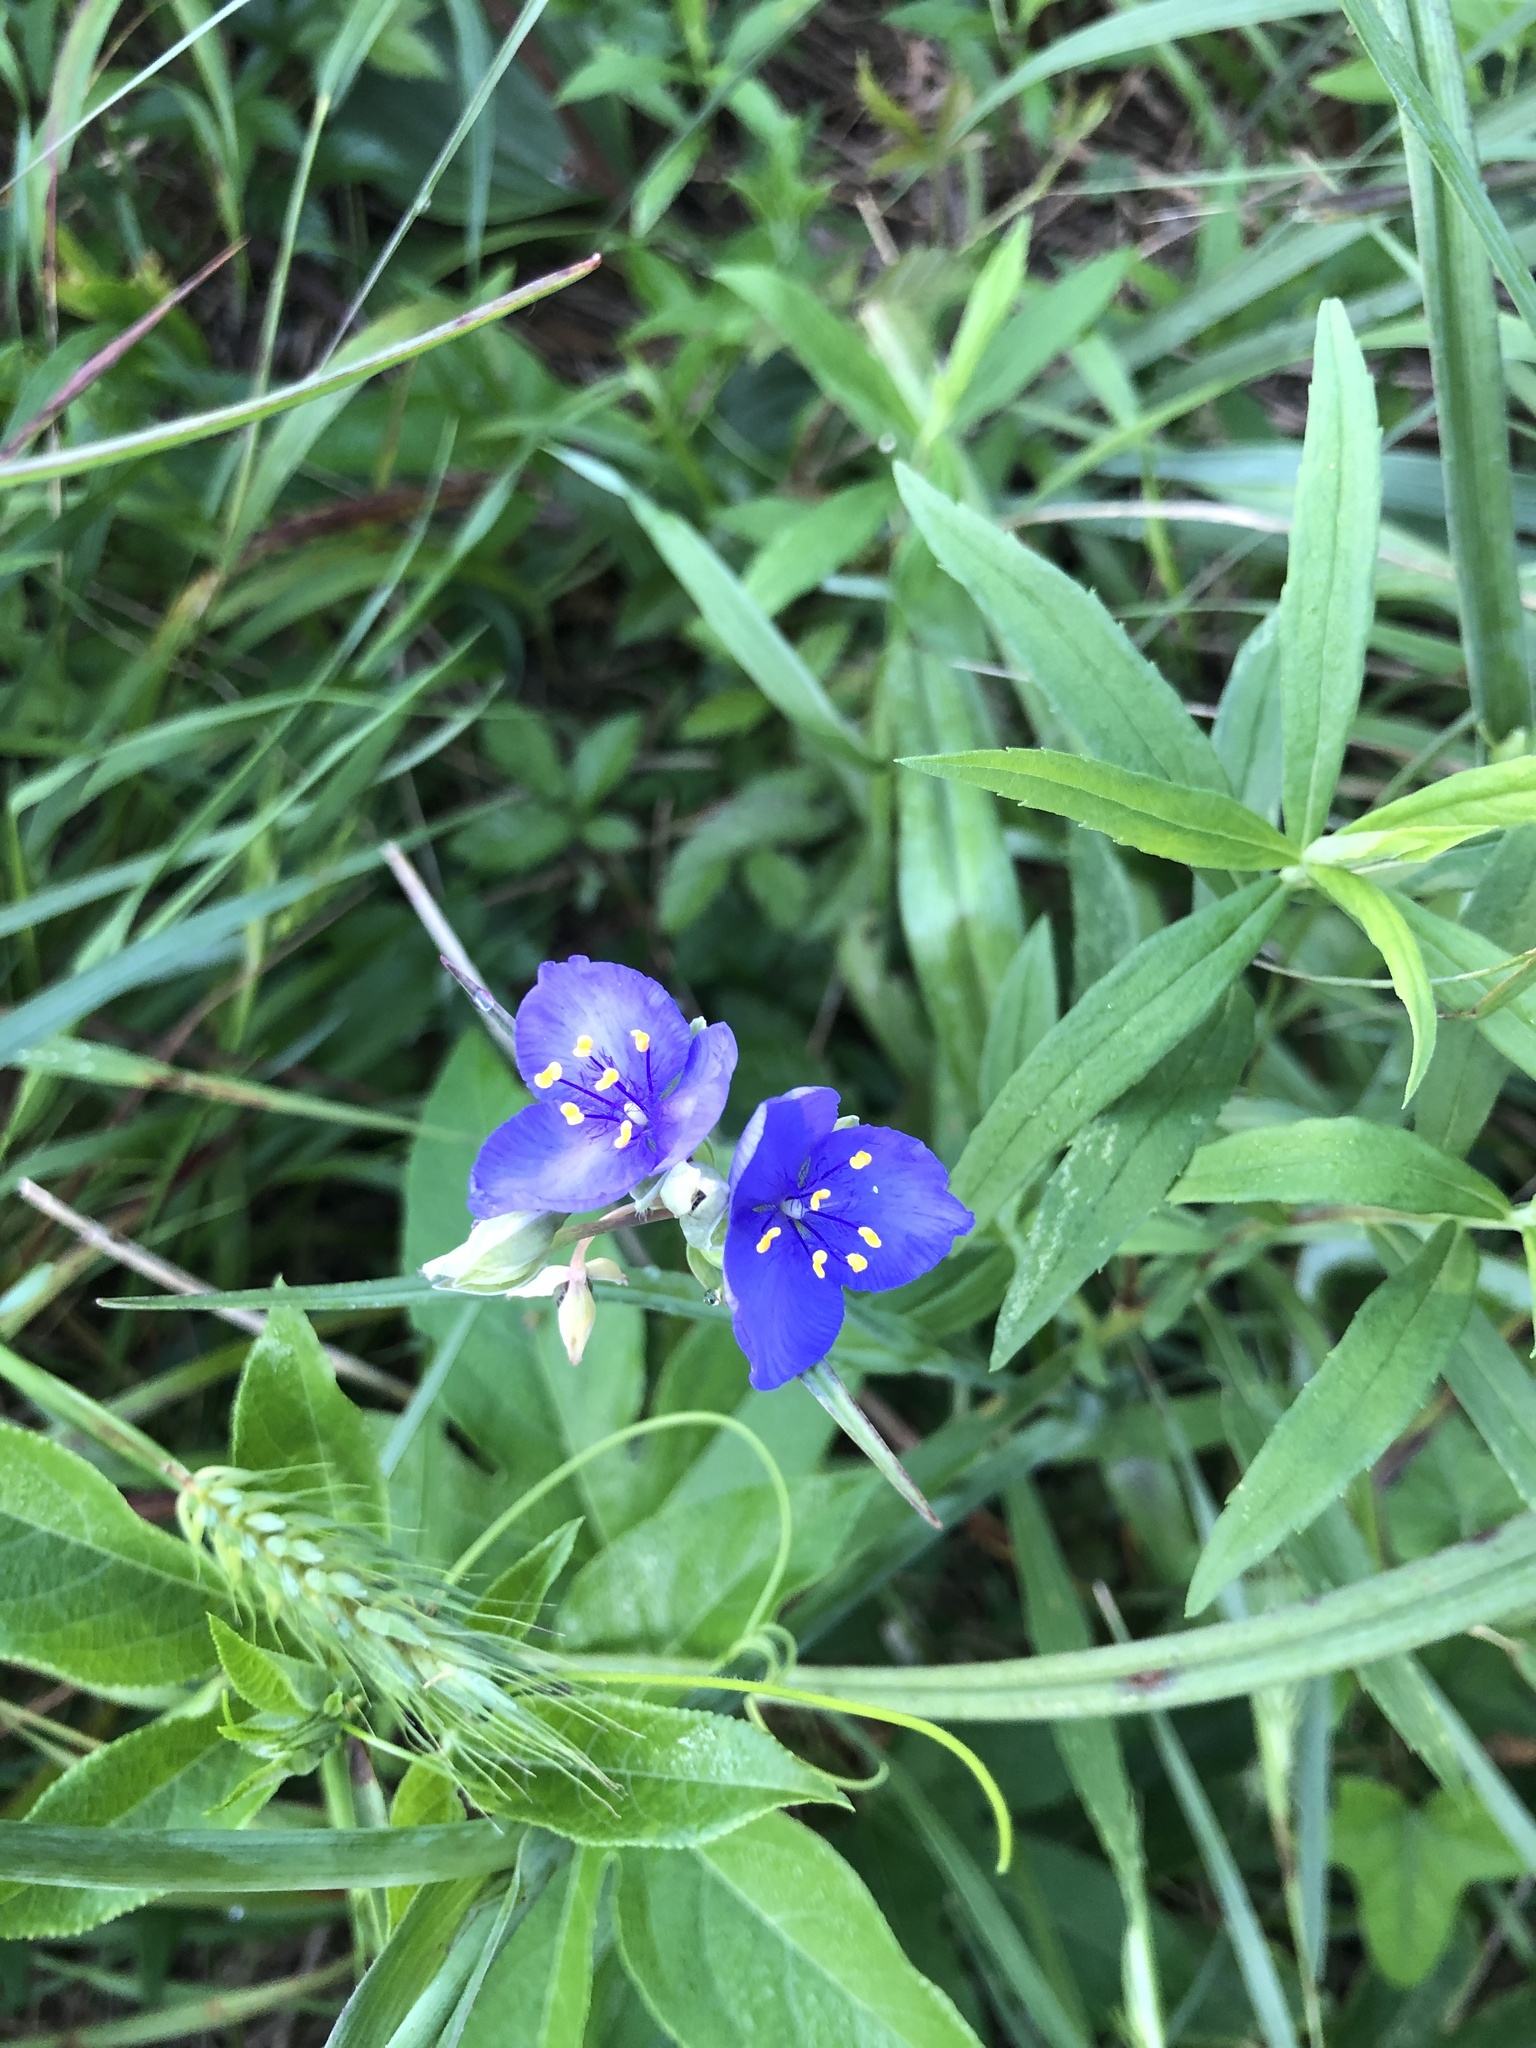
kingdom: Plantae
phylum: Tracheophyta
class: Liliopsida
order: Commelinales
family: Commelinaceae
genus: Tradescantia
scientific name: Tradescantia ohiensis
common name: Ohio spiderwort
